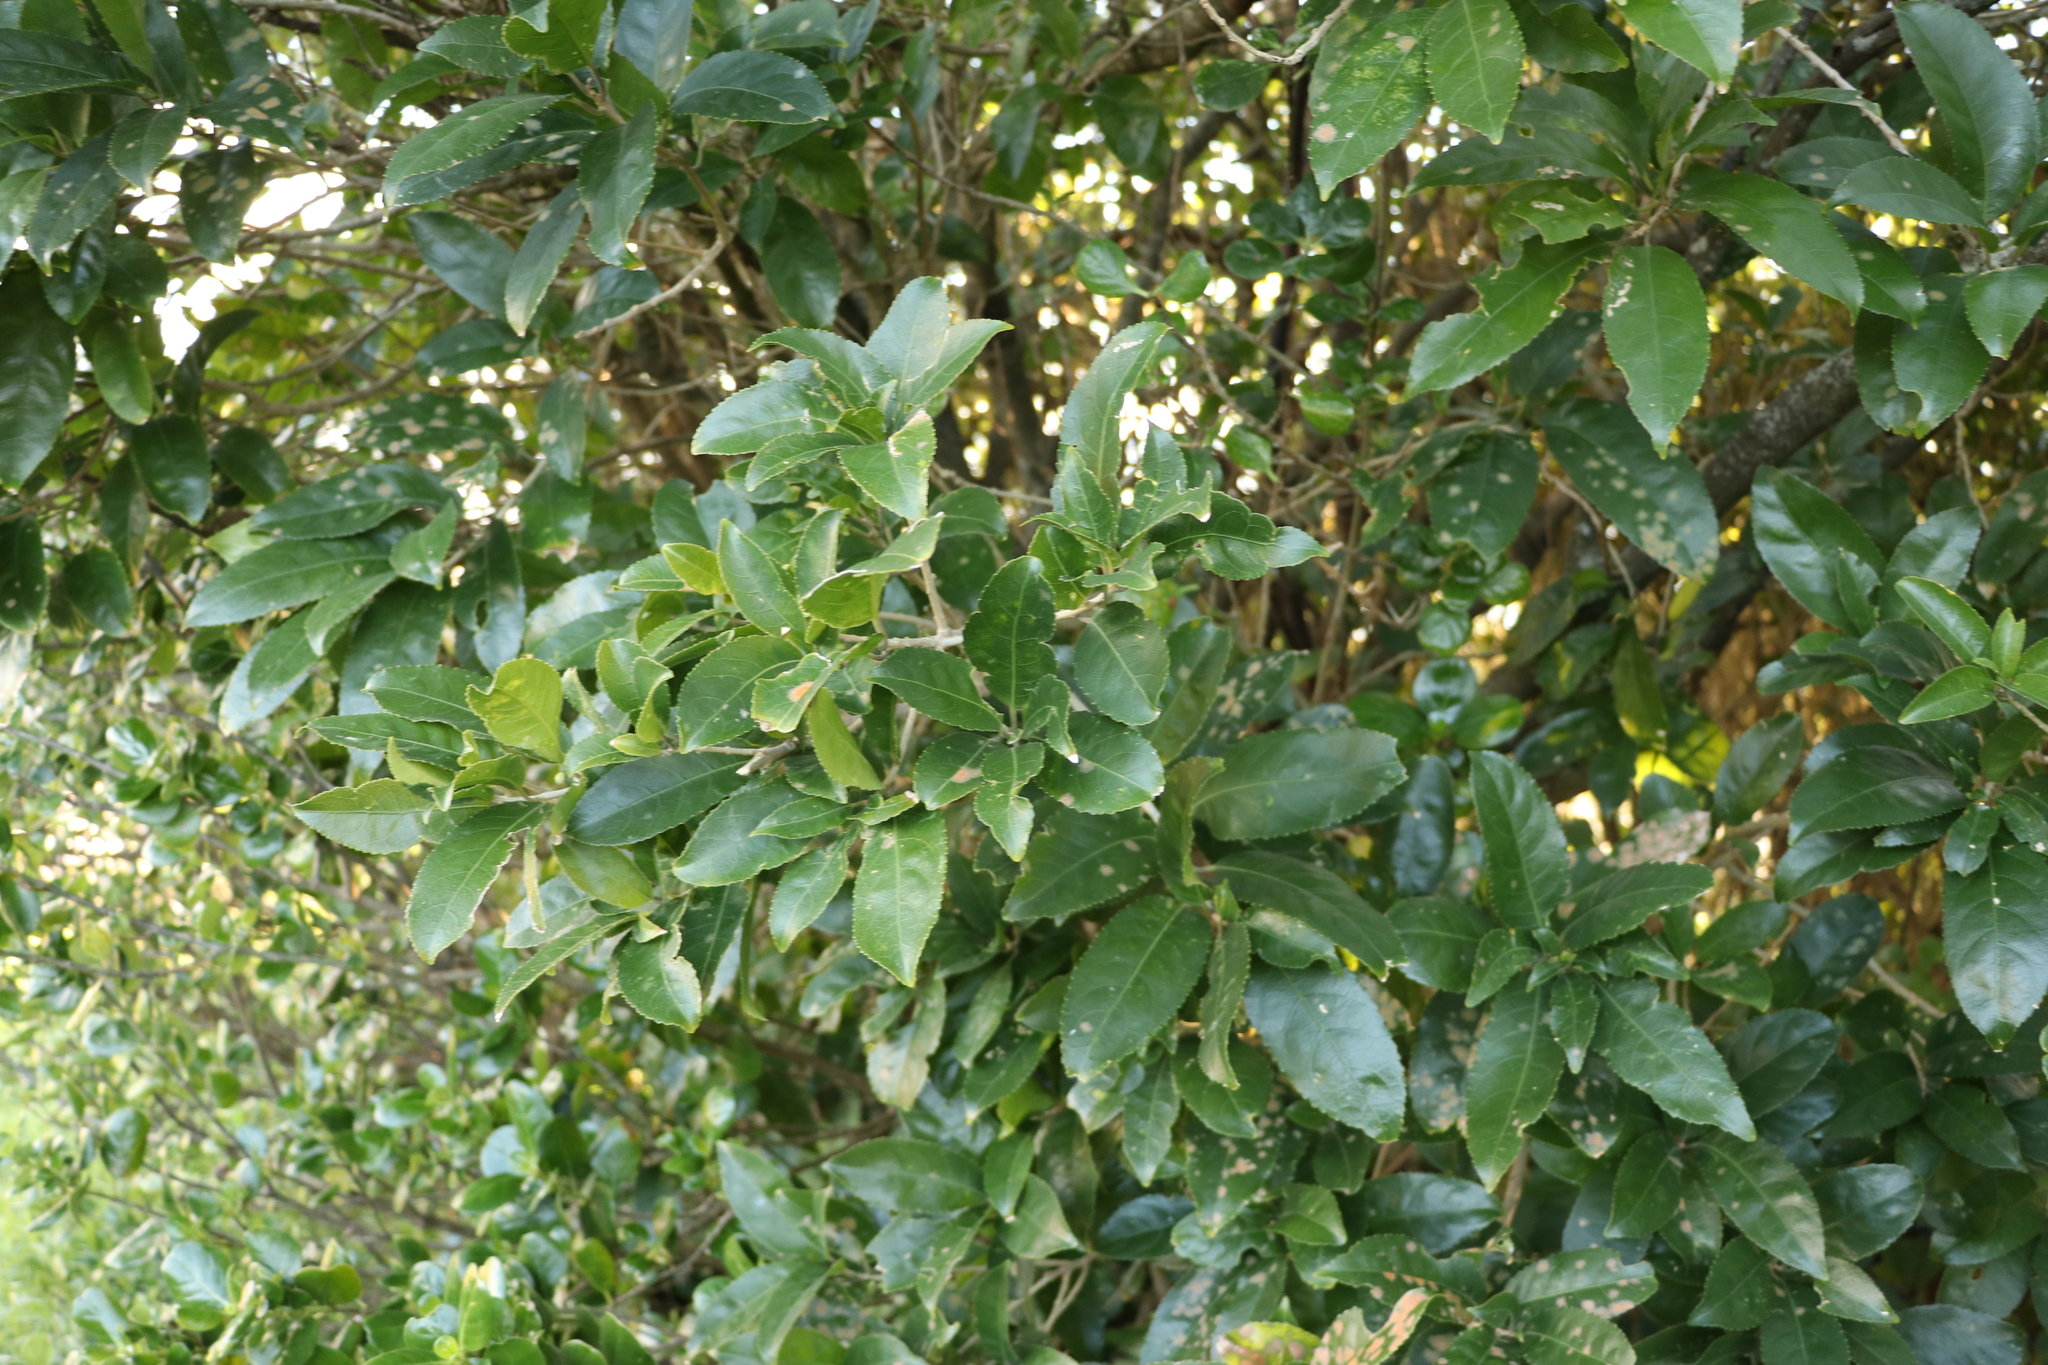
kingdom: Plantae
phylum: Tracheophyta
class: Magnoliopsida
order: Malpighiales
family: Violaceae
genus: Melicytus
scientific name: Melicytus ramiflorus
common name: Mahoe
